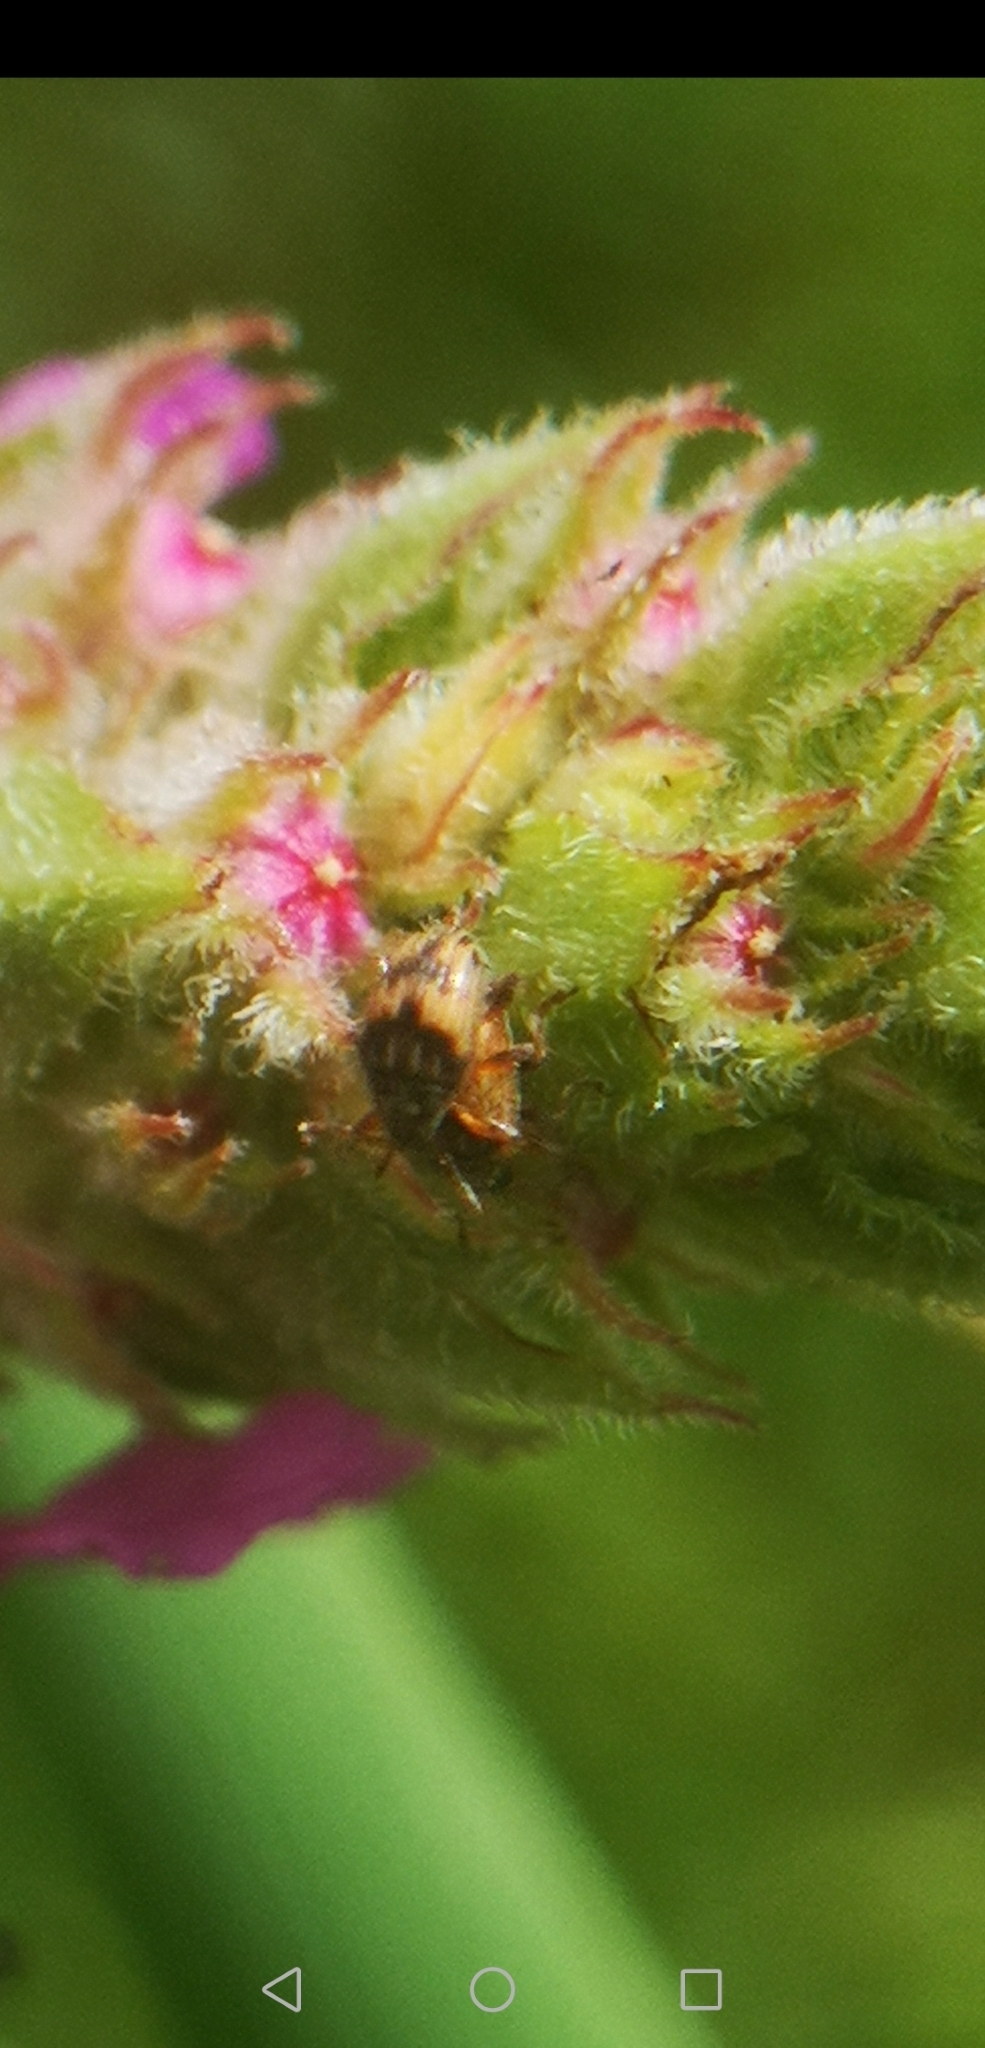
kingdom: Animalia
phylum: Arthropoda
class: Insecta
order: Coleoptera
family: Brentidae
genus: Nanophyes
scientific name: Nanophyes marmoratus
